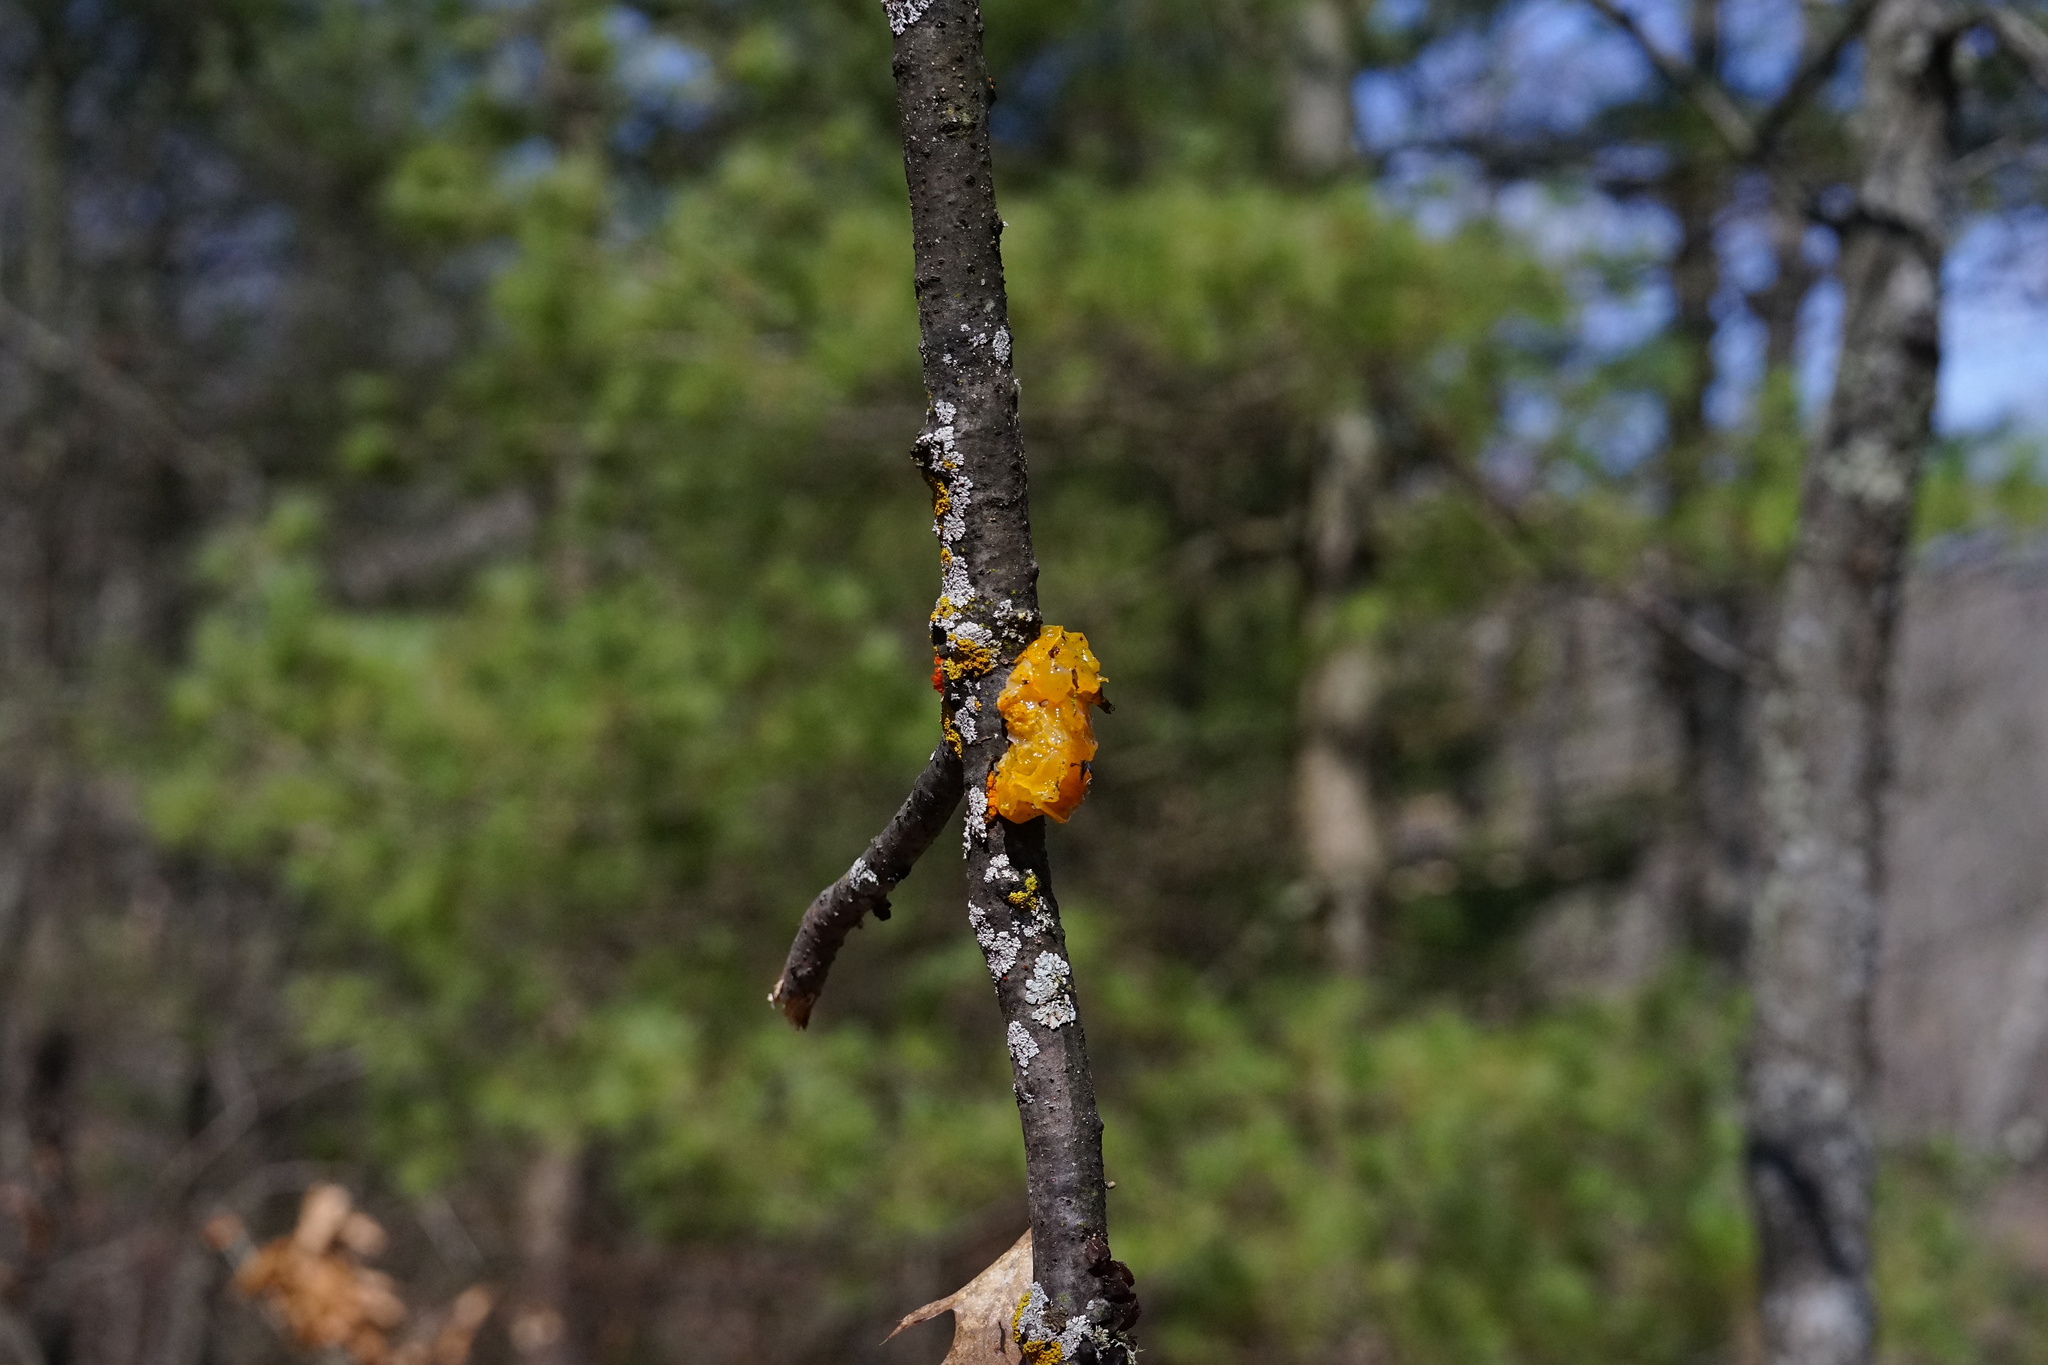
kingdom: Fungi
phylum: Basidiomycota
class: Tremellomycetes
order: Tremellales
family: Tremellaceae
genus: Tremella
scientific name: Tremella mesenterica
